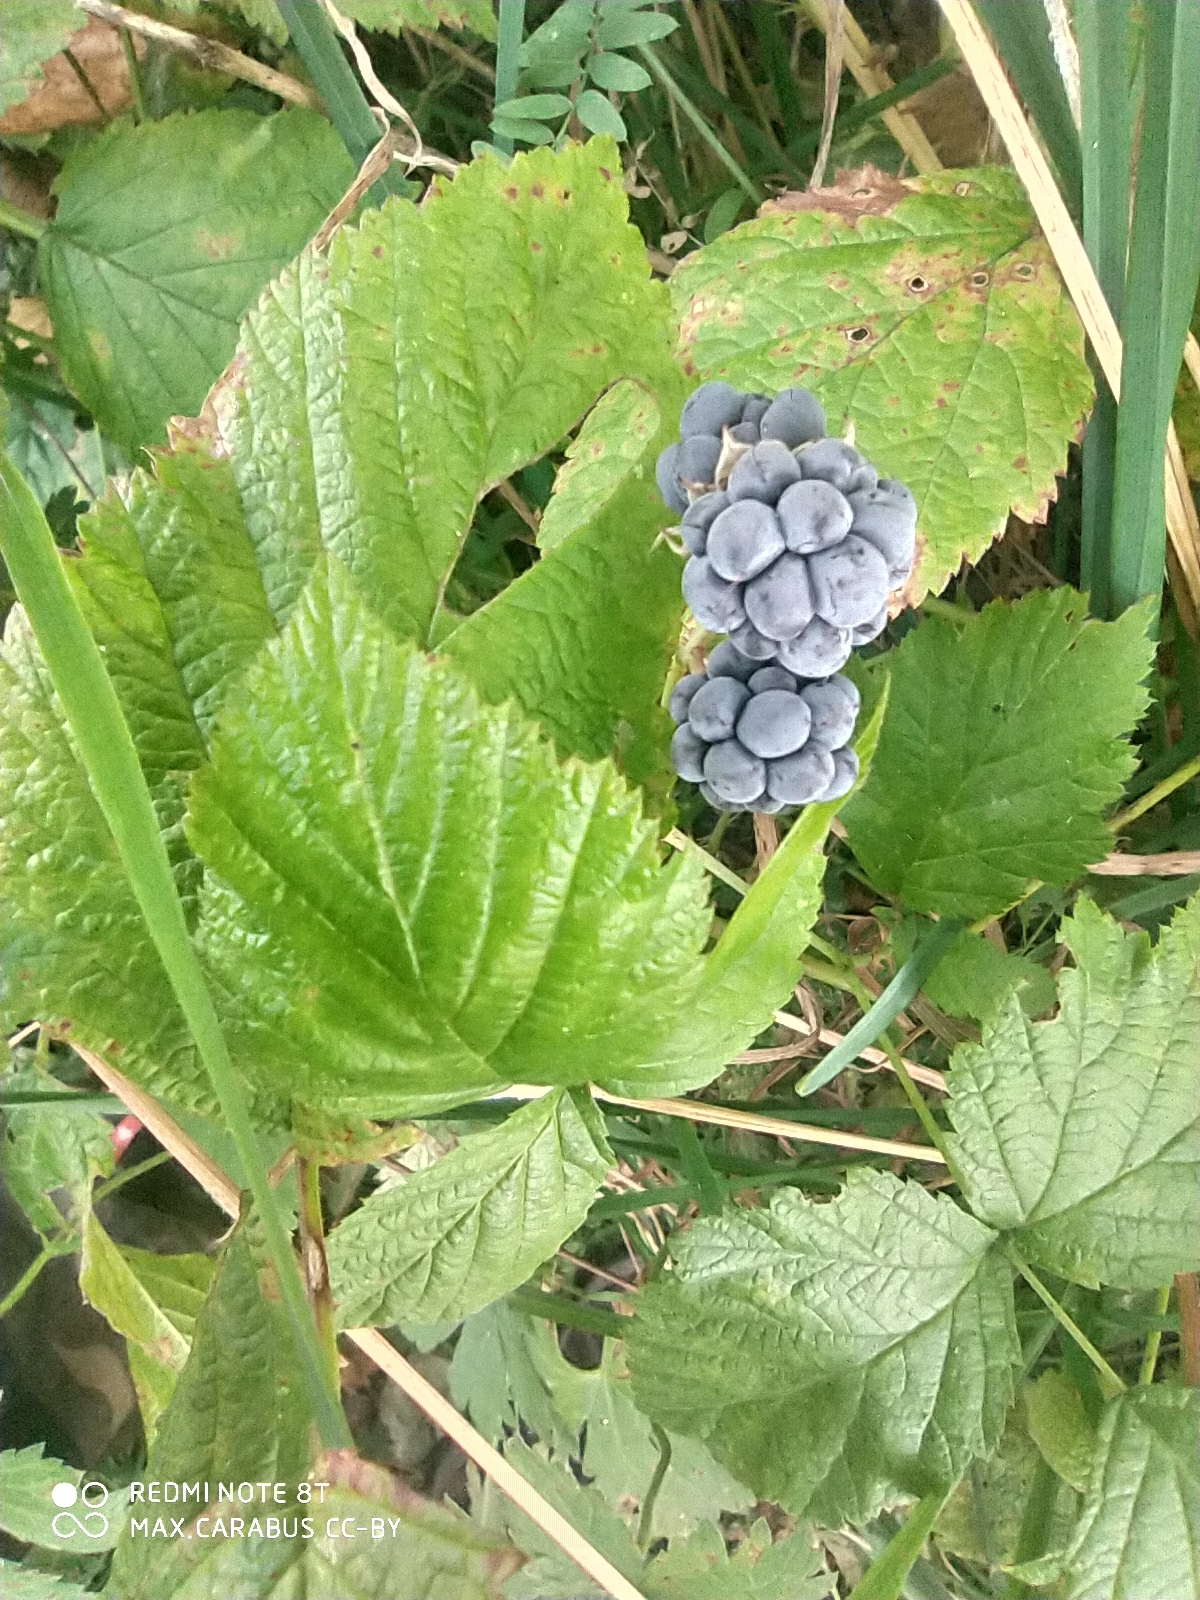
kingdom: Plantae
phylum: Tracheophyta
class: Magnoliopsida
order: Rosales
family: Rosaceae
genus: Rubus
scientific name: Rubus caesius
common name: Dewberry
